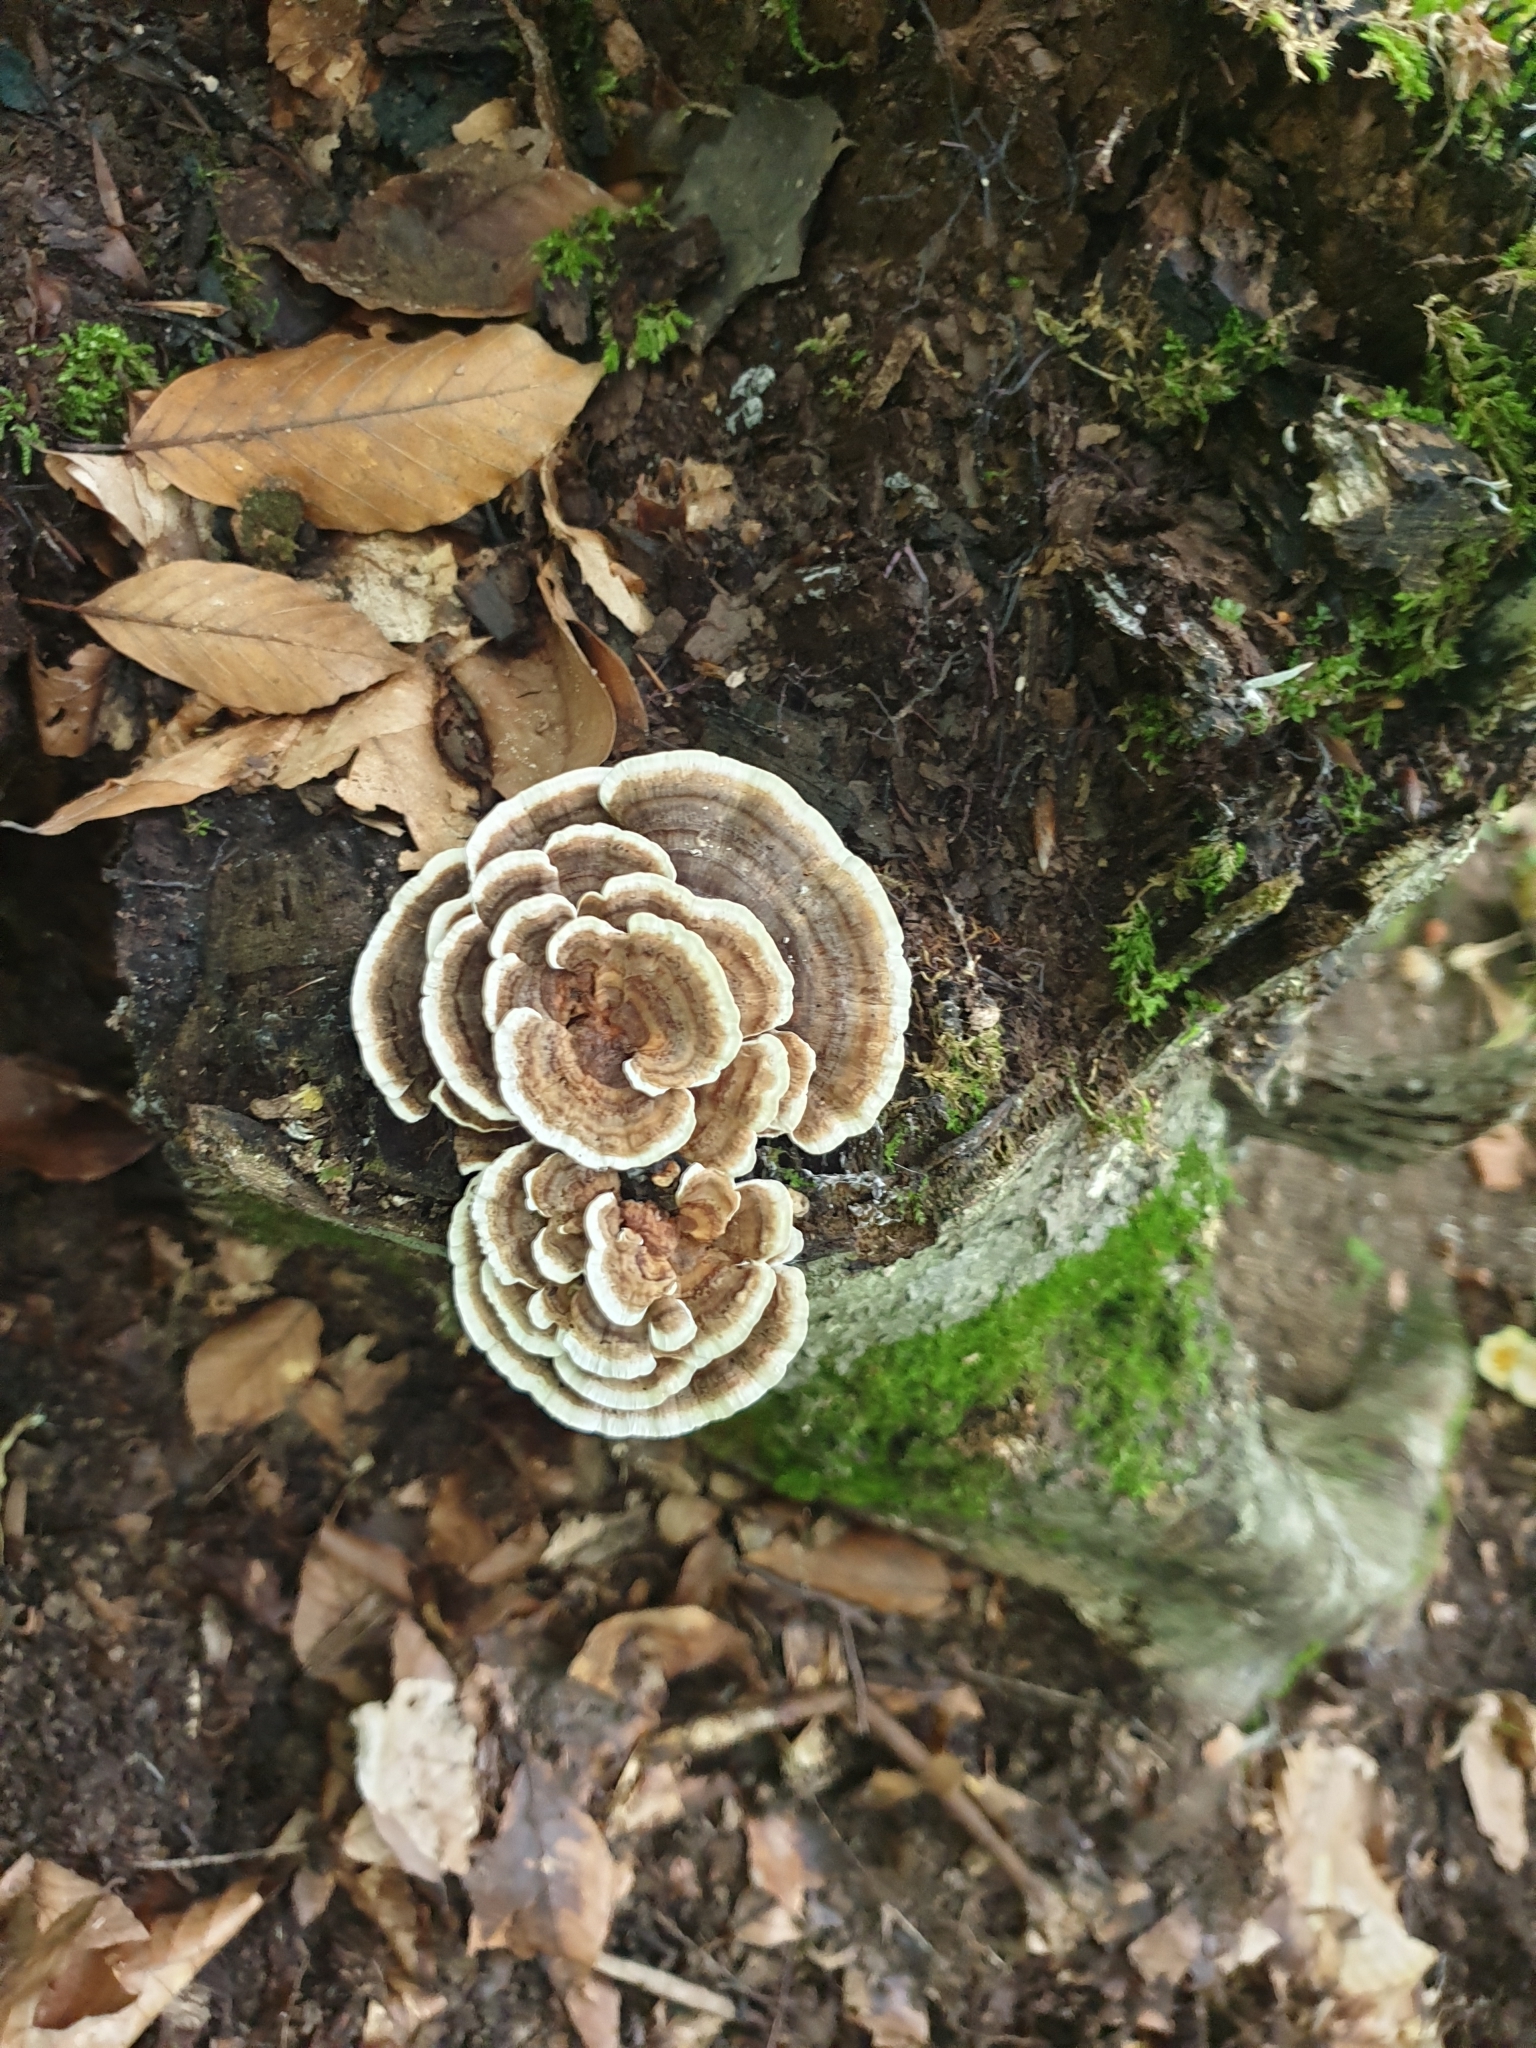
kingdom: Fungi
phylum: Basidiomycota
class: Agaricomycetes
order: Polyporales
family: Polyporaceae
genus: Trametes
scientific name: Trametes versicolor
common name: Turkeytail
